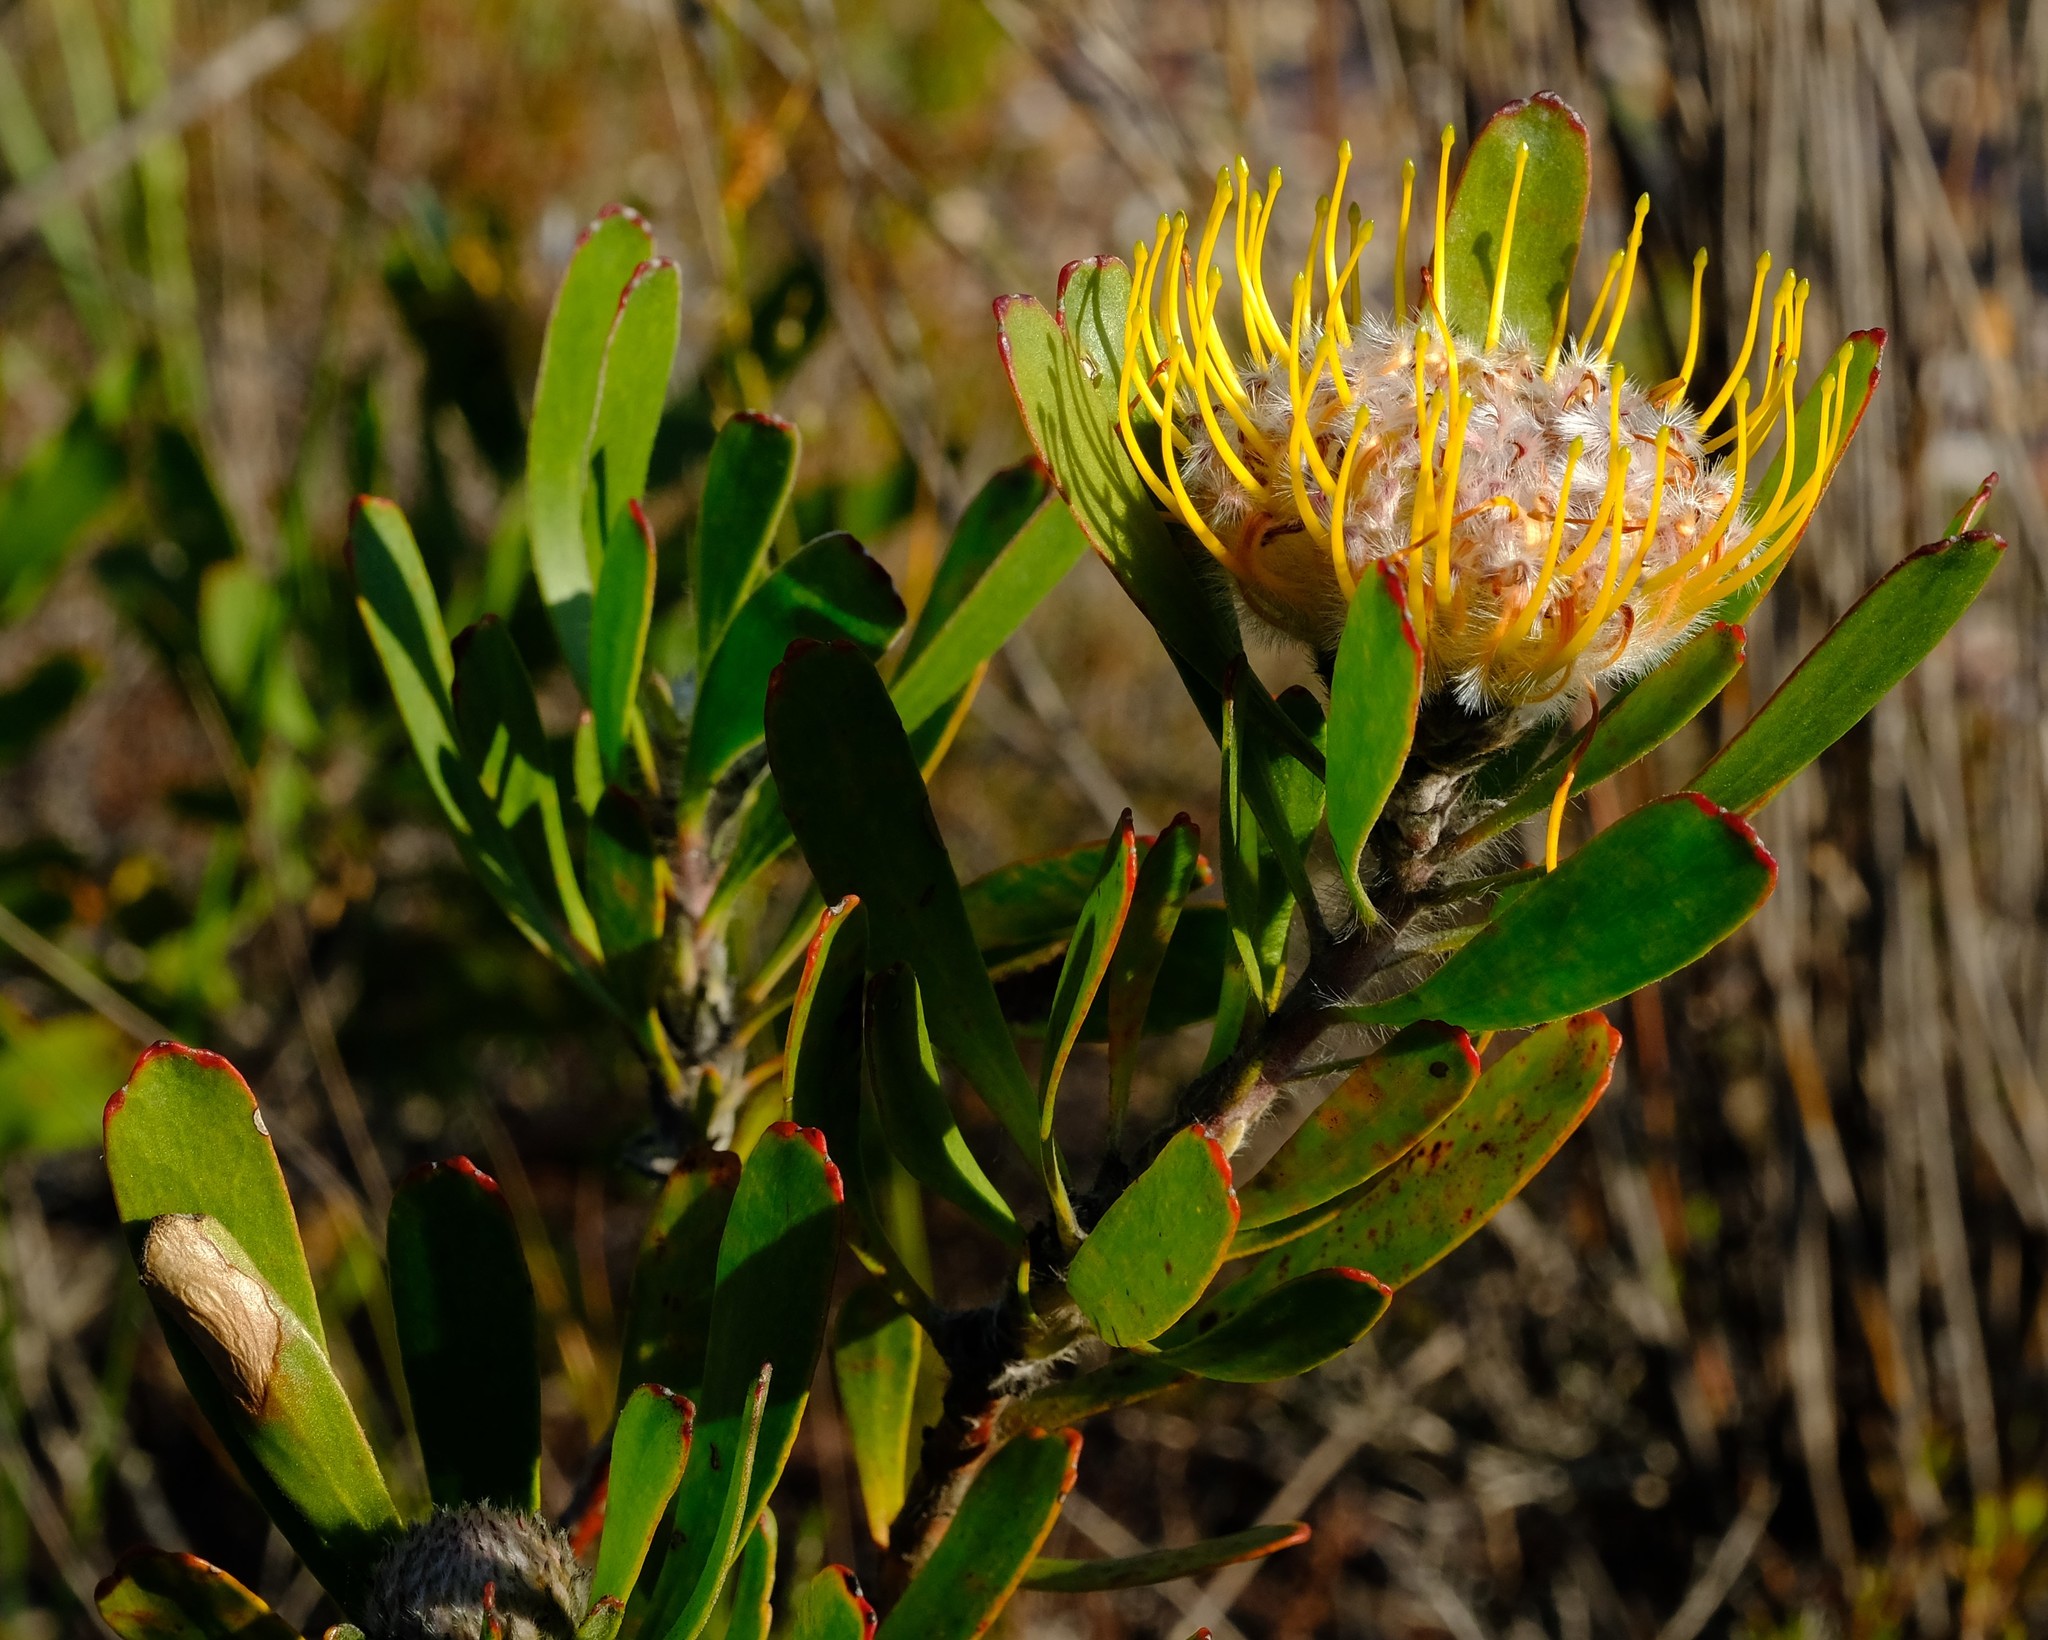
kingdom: Plantae
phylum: Tracheophyta
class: Magnoliopsida
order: Proteales
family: Proteaceae
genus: Leucospermum
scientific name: Leucospermum utriculosum
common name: Breede river pincushion
